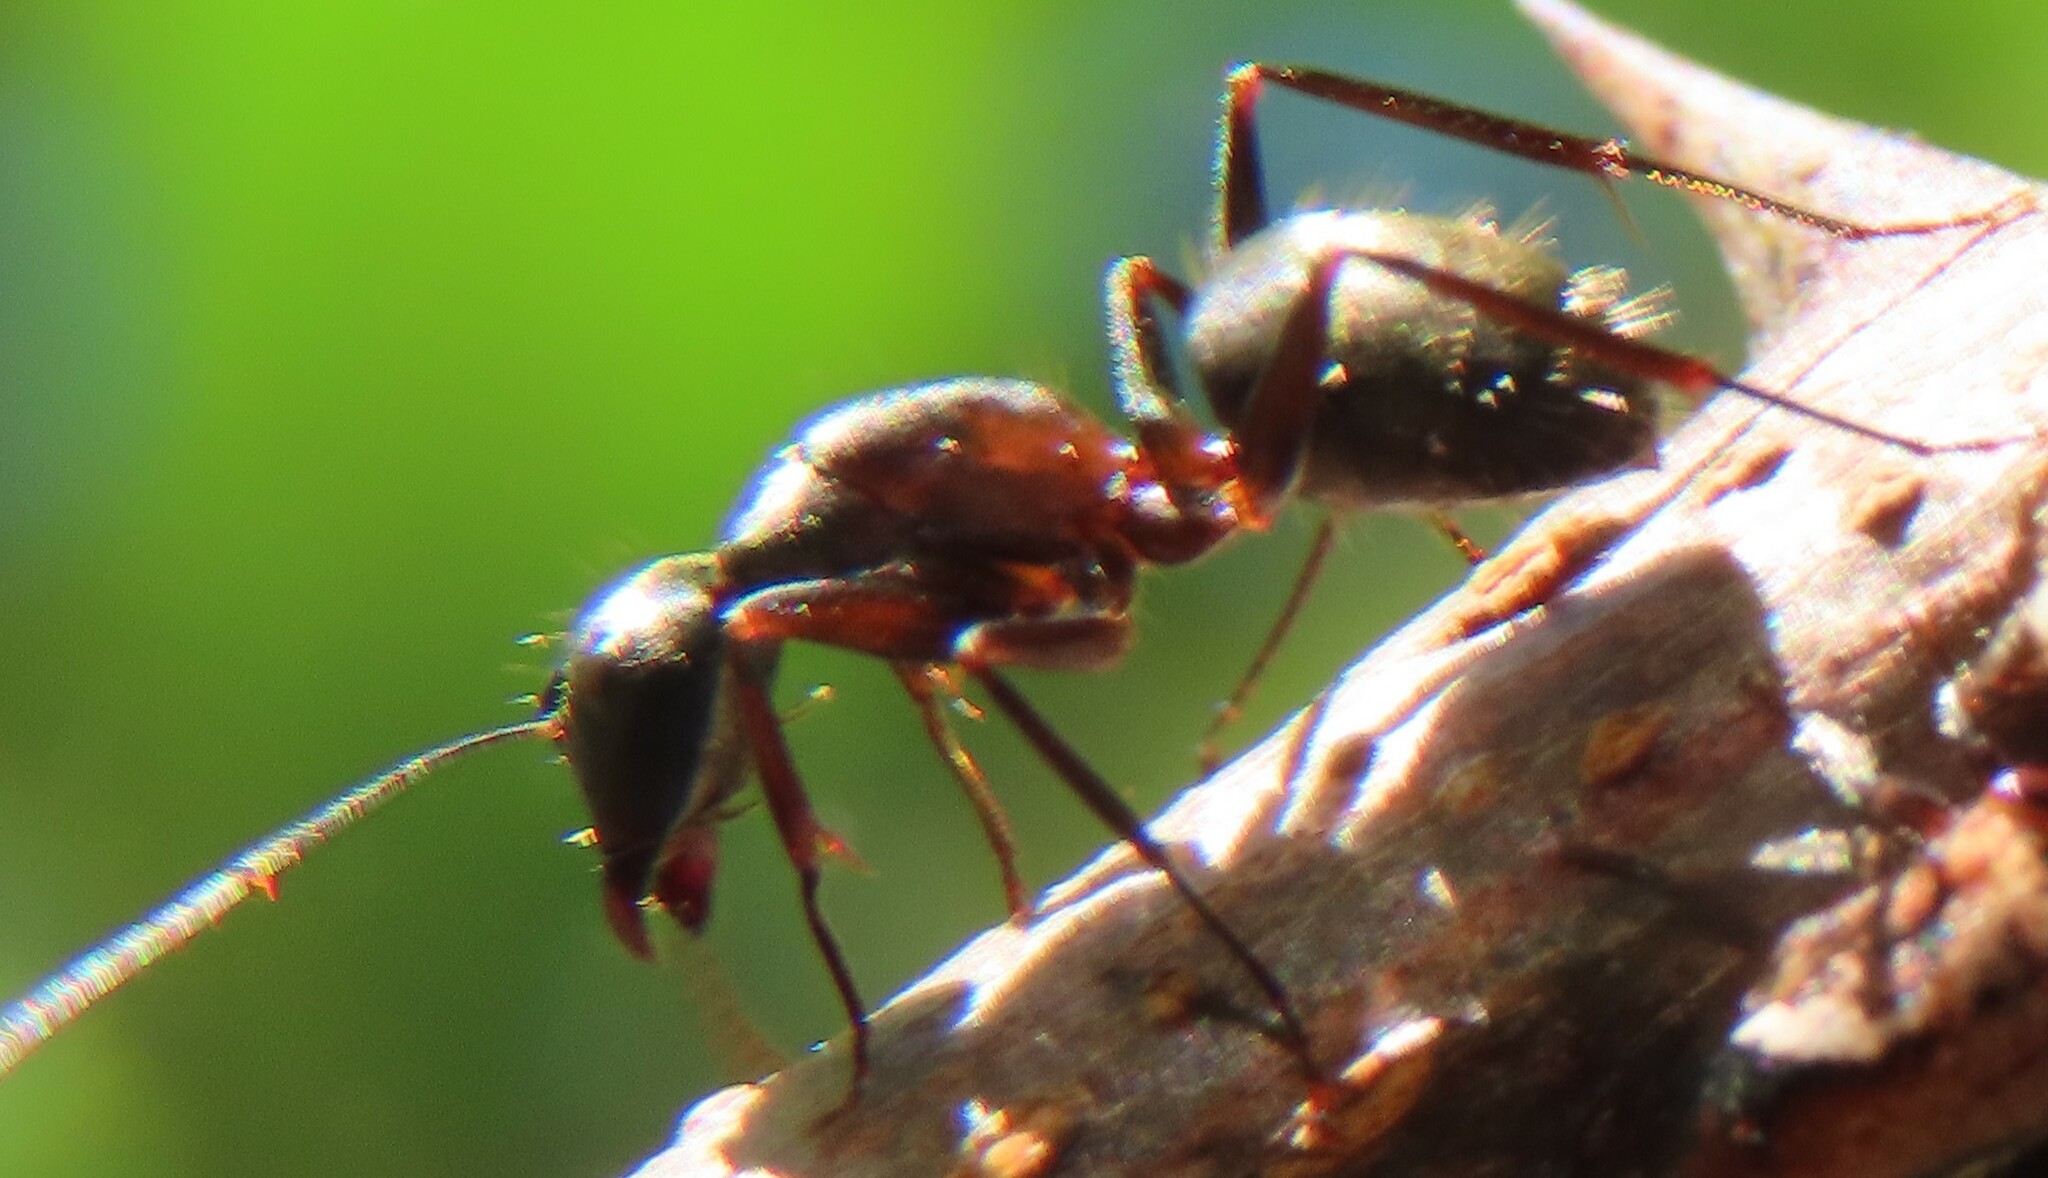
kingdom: Animalia
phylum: Arthropoda
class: Insecta
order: Hymenoptera
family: Formicidae
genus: Camponotus
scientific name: Camponotus chromaiodes
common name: Red carpenter ant
